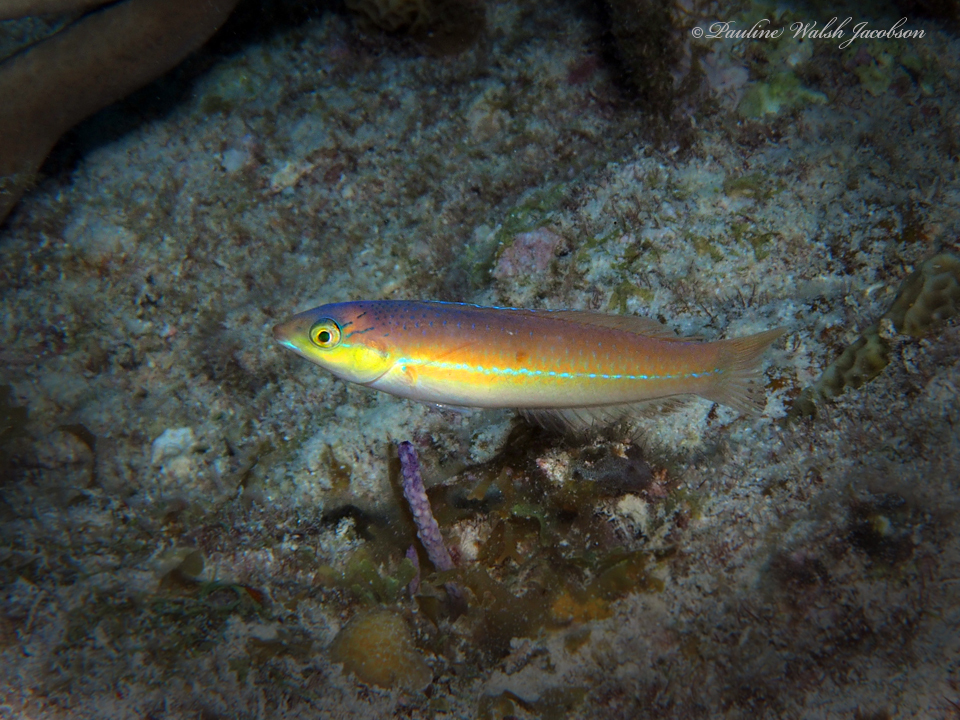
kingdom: Animalia
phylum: Chordata
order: Perciformes
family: Labridae
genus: Halichoeres
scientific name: Halichoeres garnoti
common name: Yellowhead wrasse
